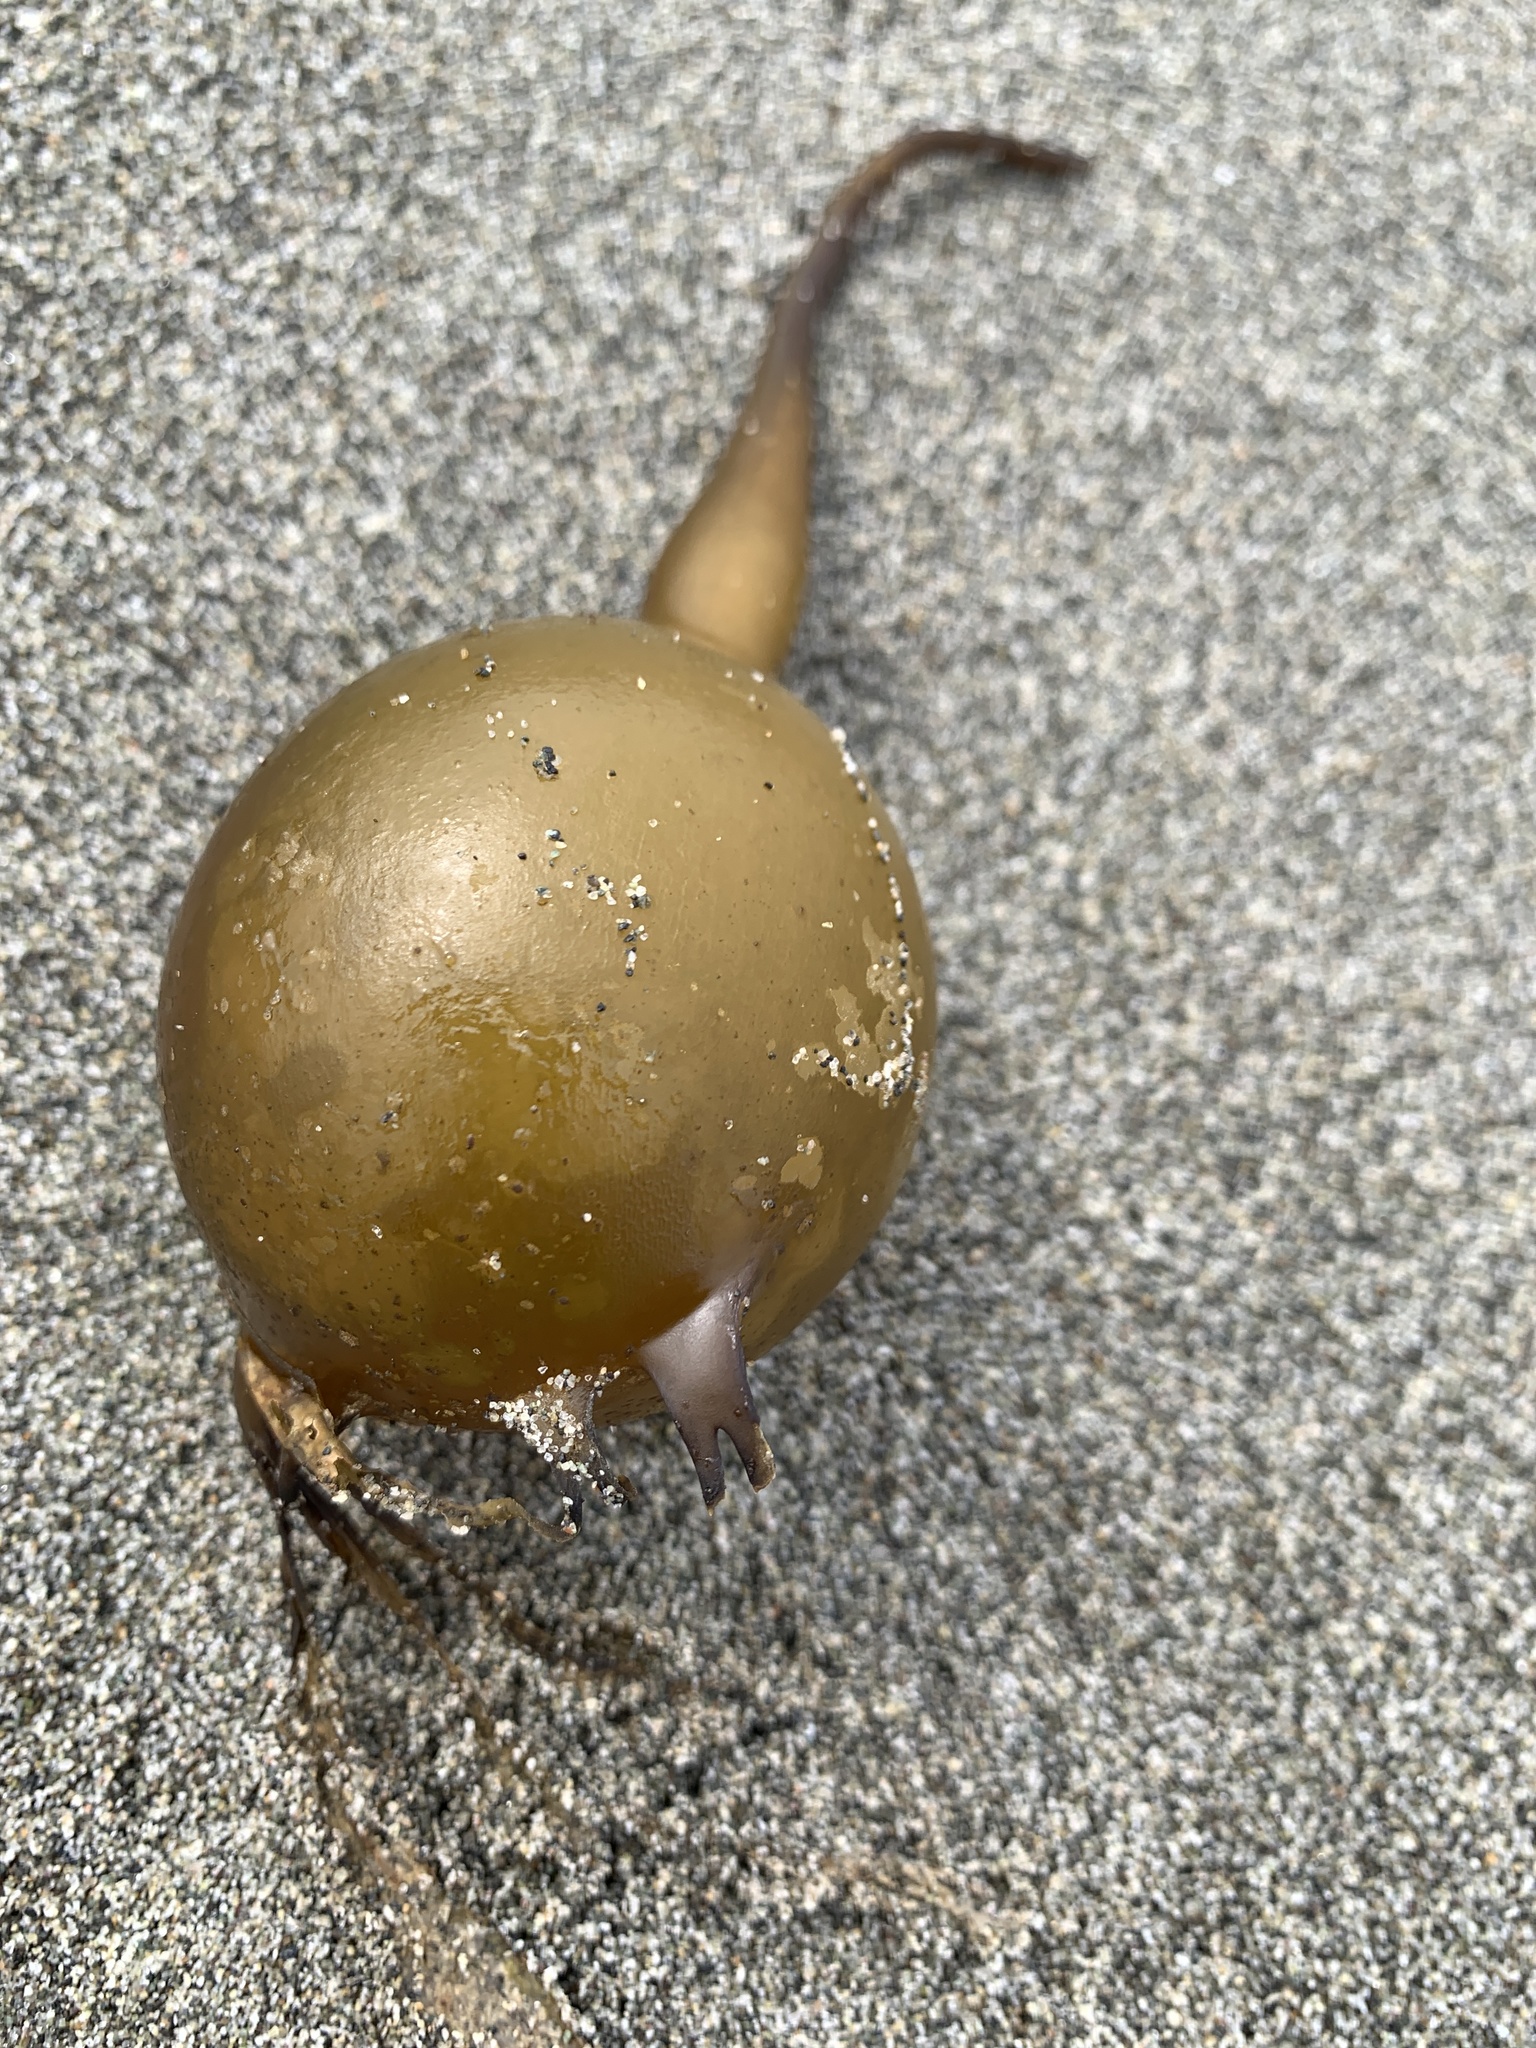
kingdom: Chromista
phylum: Ochrophyta
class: Phaeophyceae
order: Laminariales
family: Laminariaceae
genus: Nereocystis
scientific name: Nereocystis luetkeana
